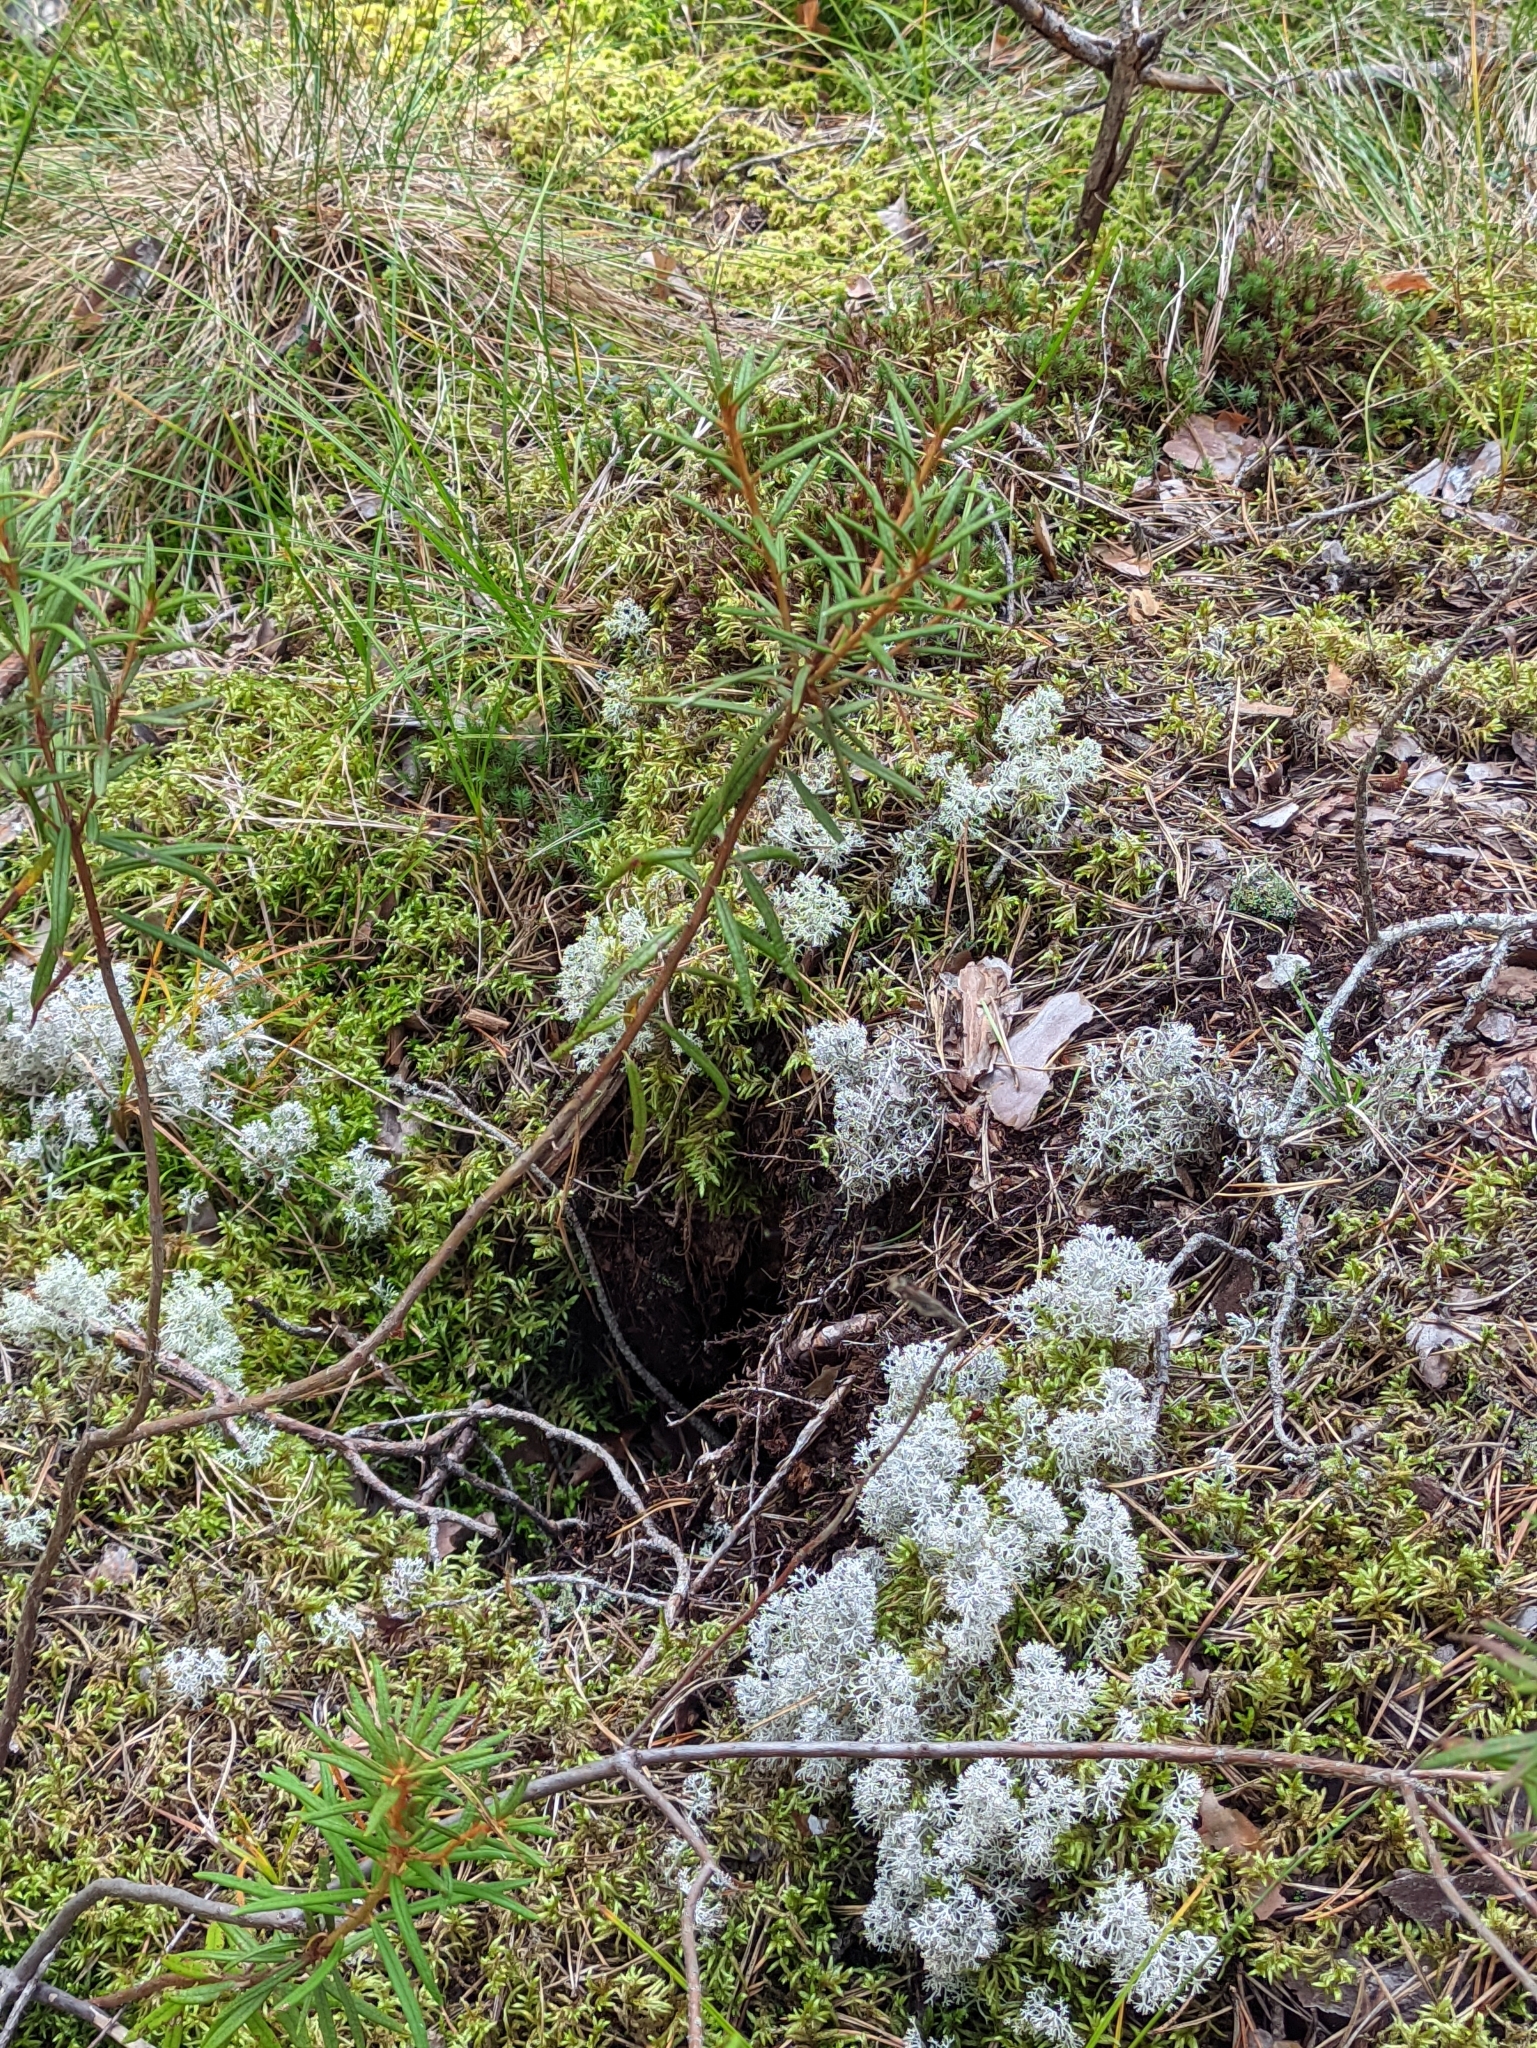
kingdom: Plantae
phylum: Tracheophyta
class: Magnoliopsida
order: Ericales
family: Ericaceae
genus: Rhododendron
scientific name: Rhododendron tomentosum
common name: Marsh labrador tea
